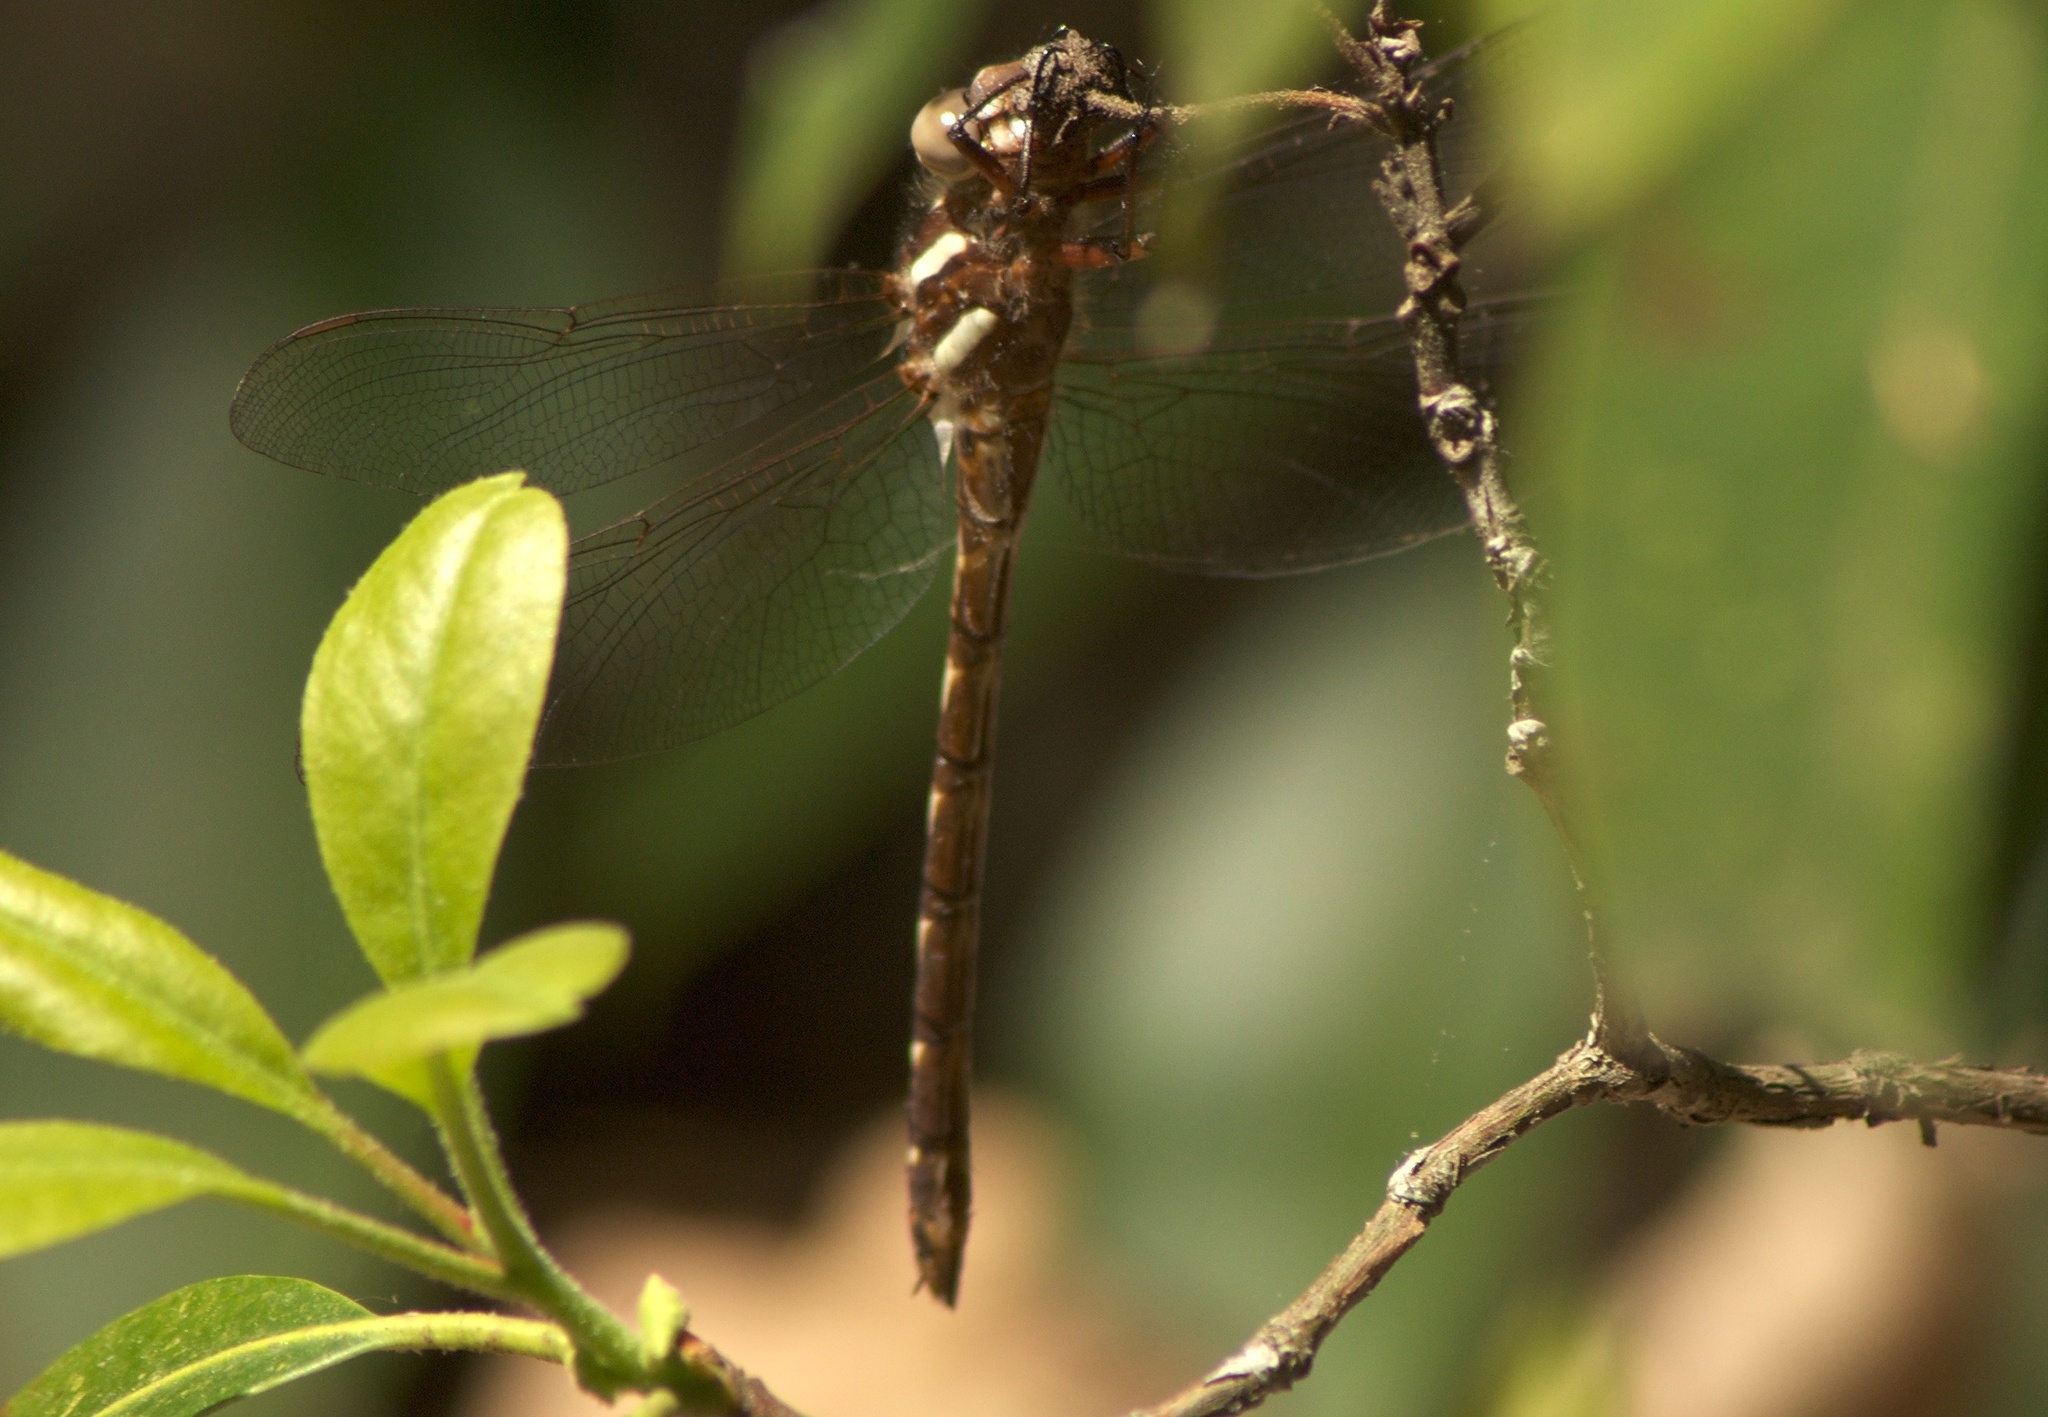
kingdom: Animalia
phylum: Arthropoda
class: Insecta
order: Odonata
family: Cordulegastridae
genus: Cordulegaster
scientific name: Cordulegaster bilineata
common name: Brown spiketail
